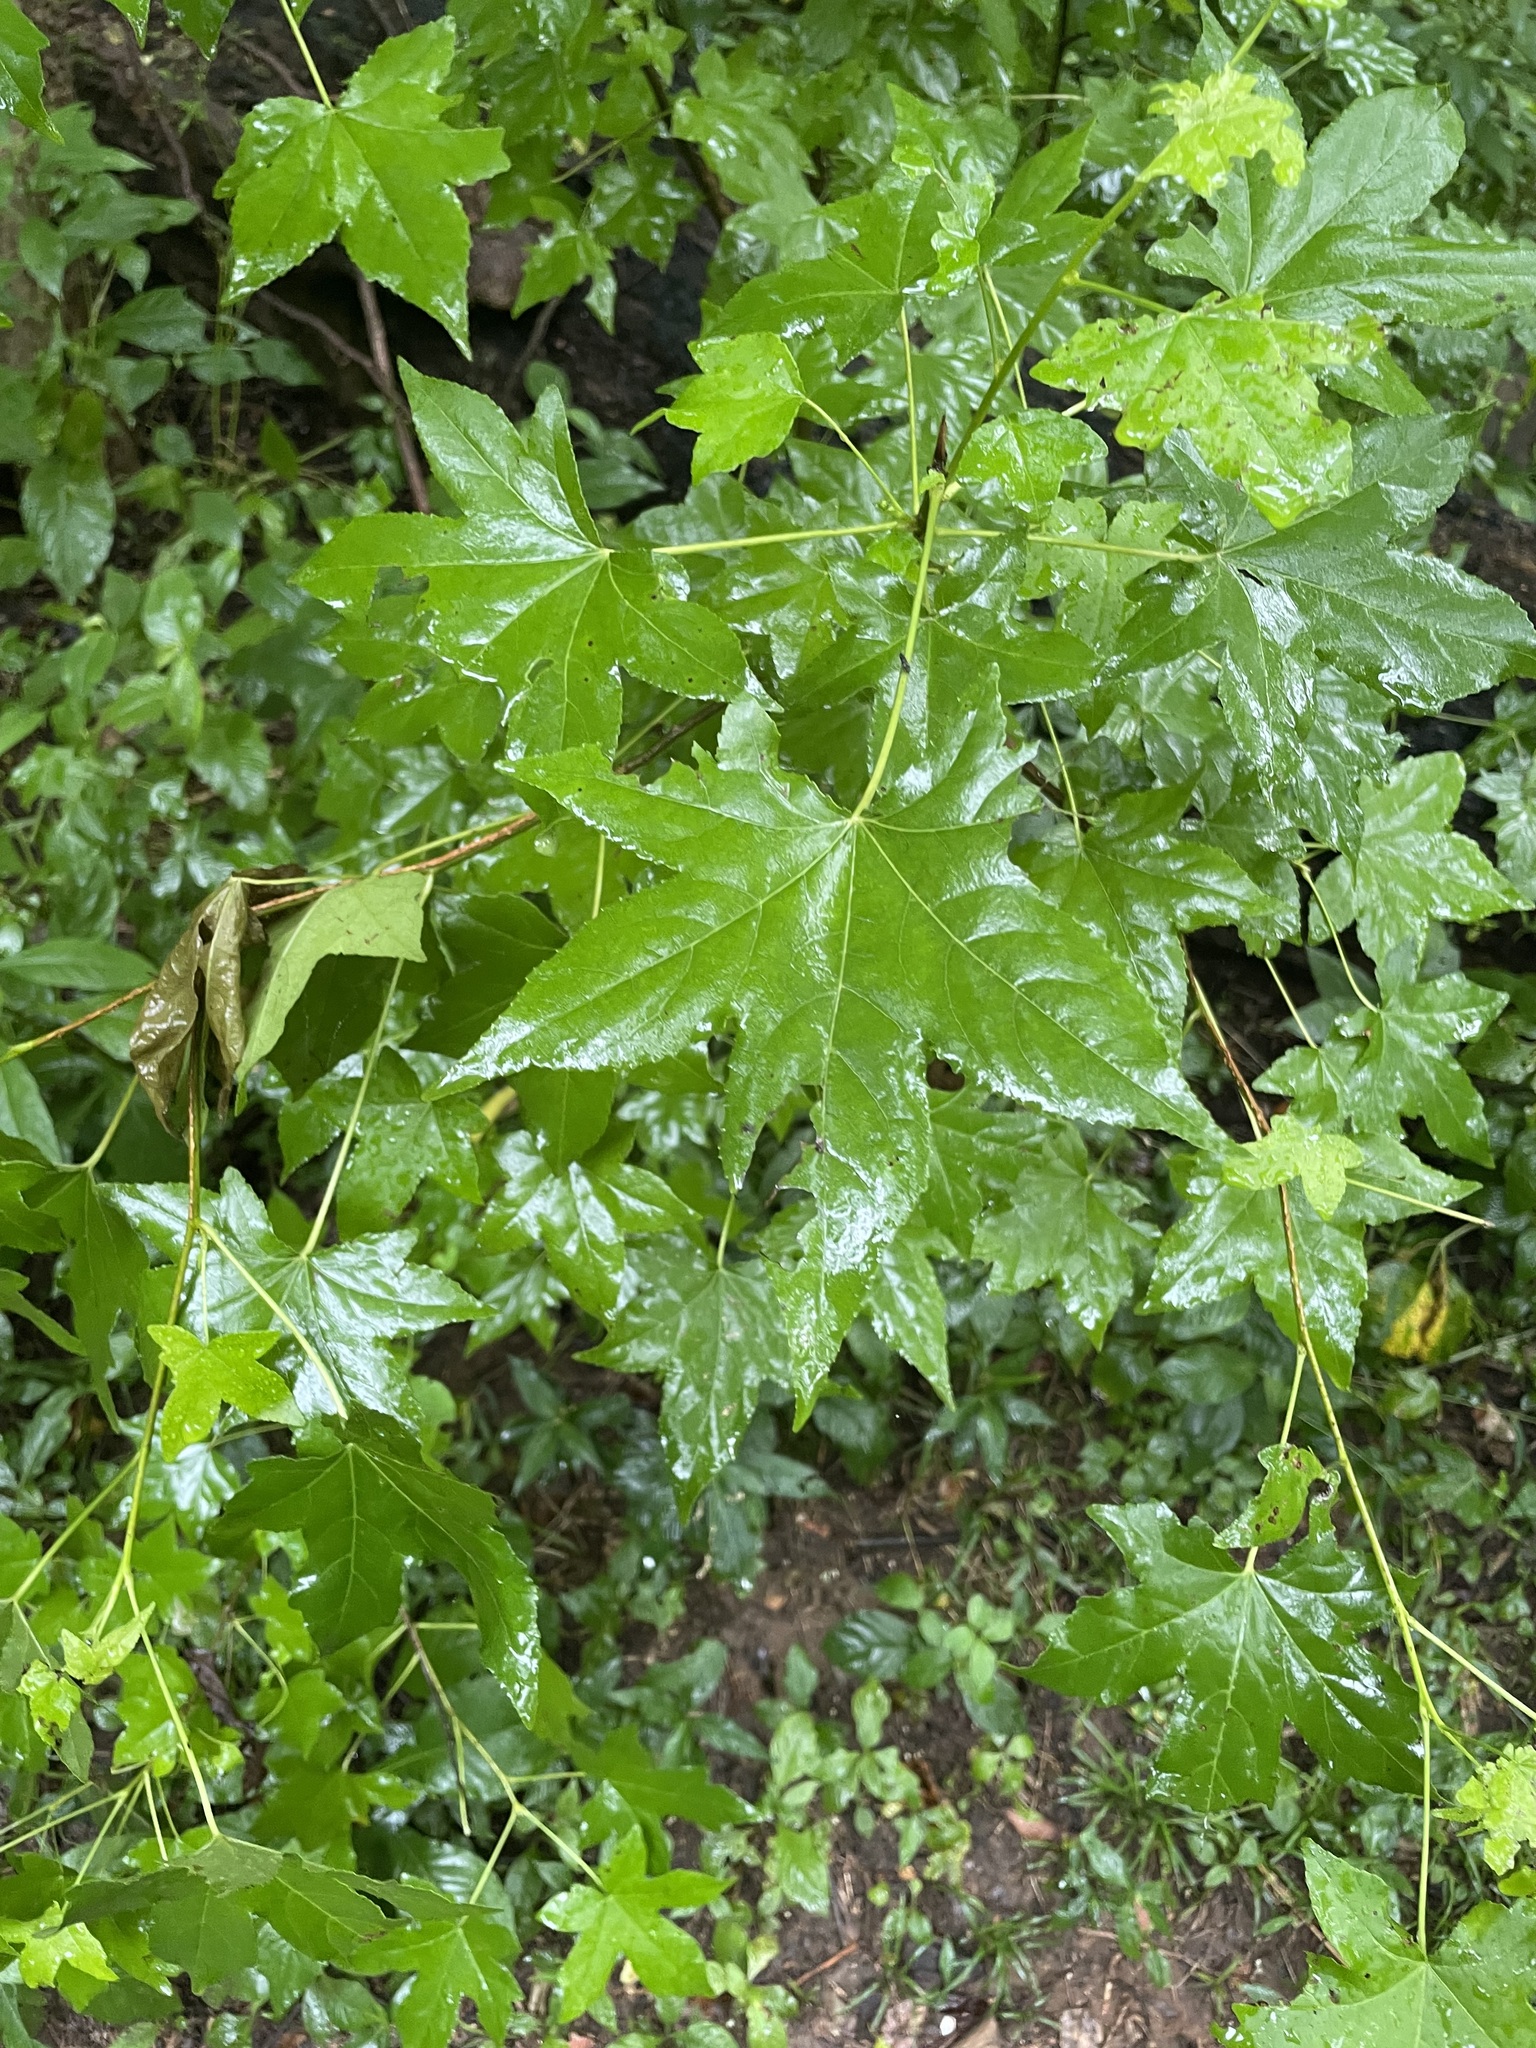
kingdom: Plantae
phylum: Tracheophyta
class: Magnoliopsida
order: Saxifragales
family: Altingiaceae
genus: Liquidambar
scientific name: Liquidambar styraciflua
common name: Sweet gum
